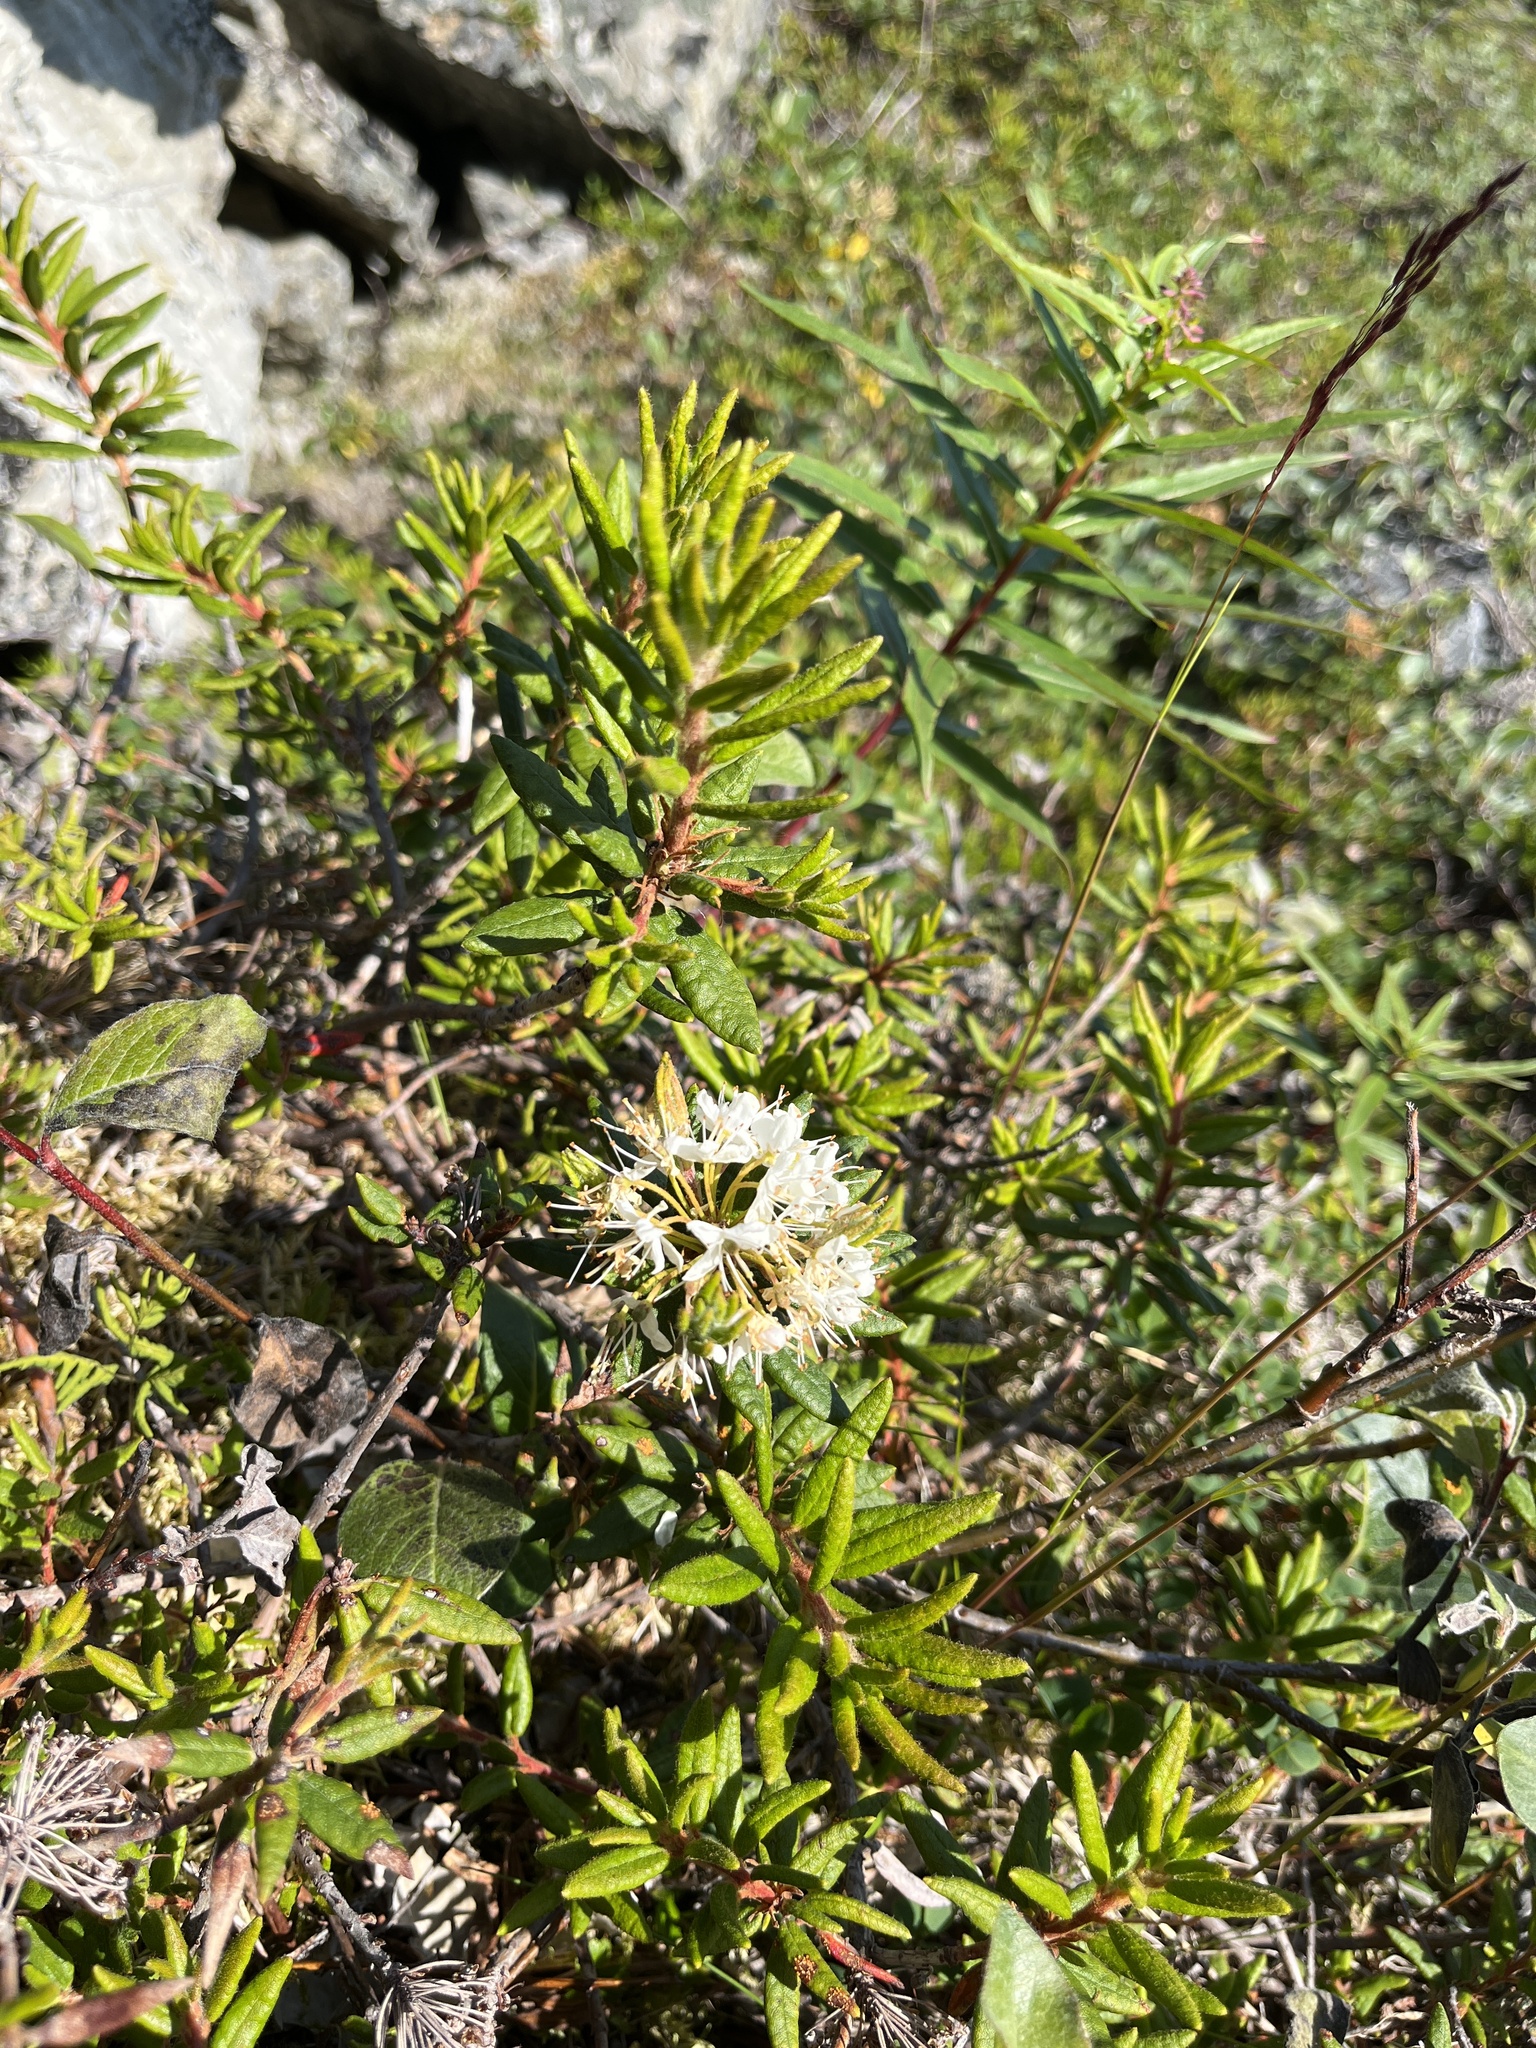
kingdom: Plantae
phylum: Tracheophyta
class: Magnoliopsida
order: Ericales
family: Ericaceae
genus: Rhododendron
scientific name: Rhododendron groenlandicum
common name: Bog labrador tea
